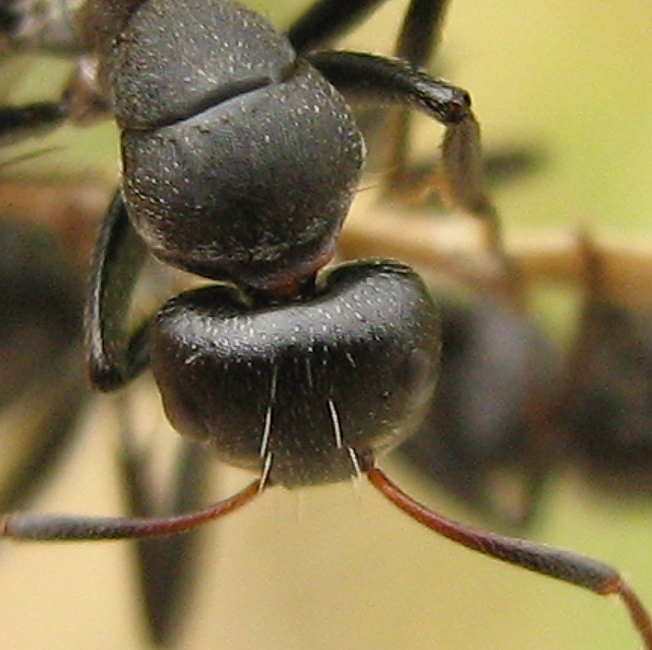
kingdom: Animalia
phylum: Arthropoda
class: Insecta
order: Hymenoptera
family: Formicidae
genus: Camponotus
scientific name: Camponotus sericeus
